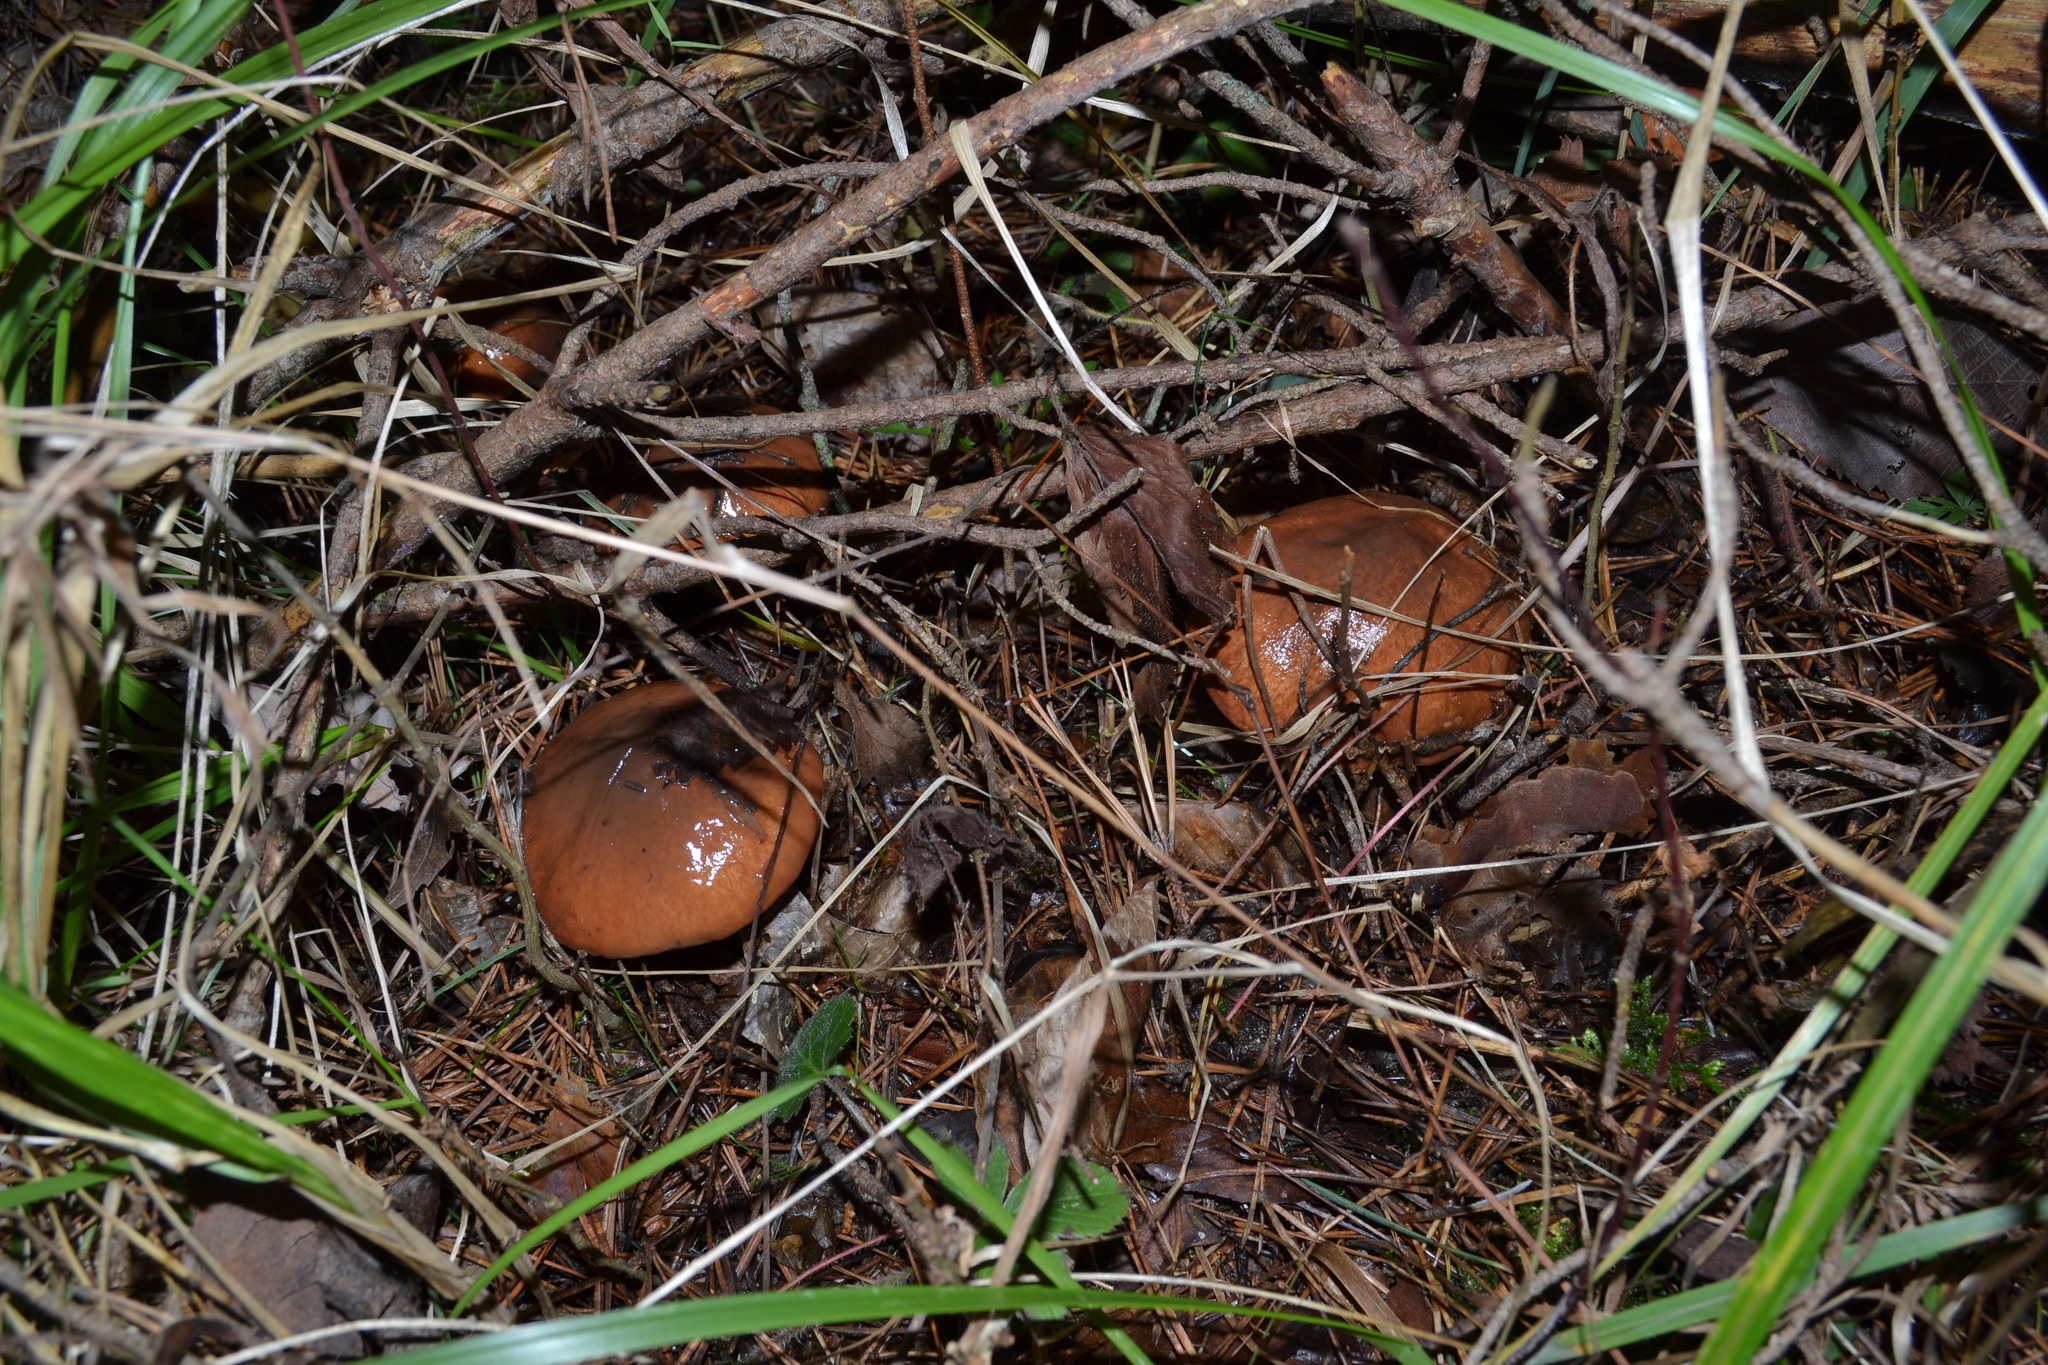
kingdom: Fungi
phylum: Basidiomycota
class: Agaricomycetes
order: Boletales
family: Suillaceae
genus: Suillus
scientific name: Suillus luteus
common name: Slippery jack
